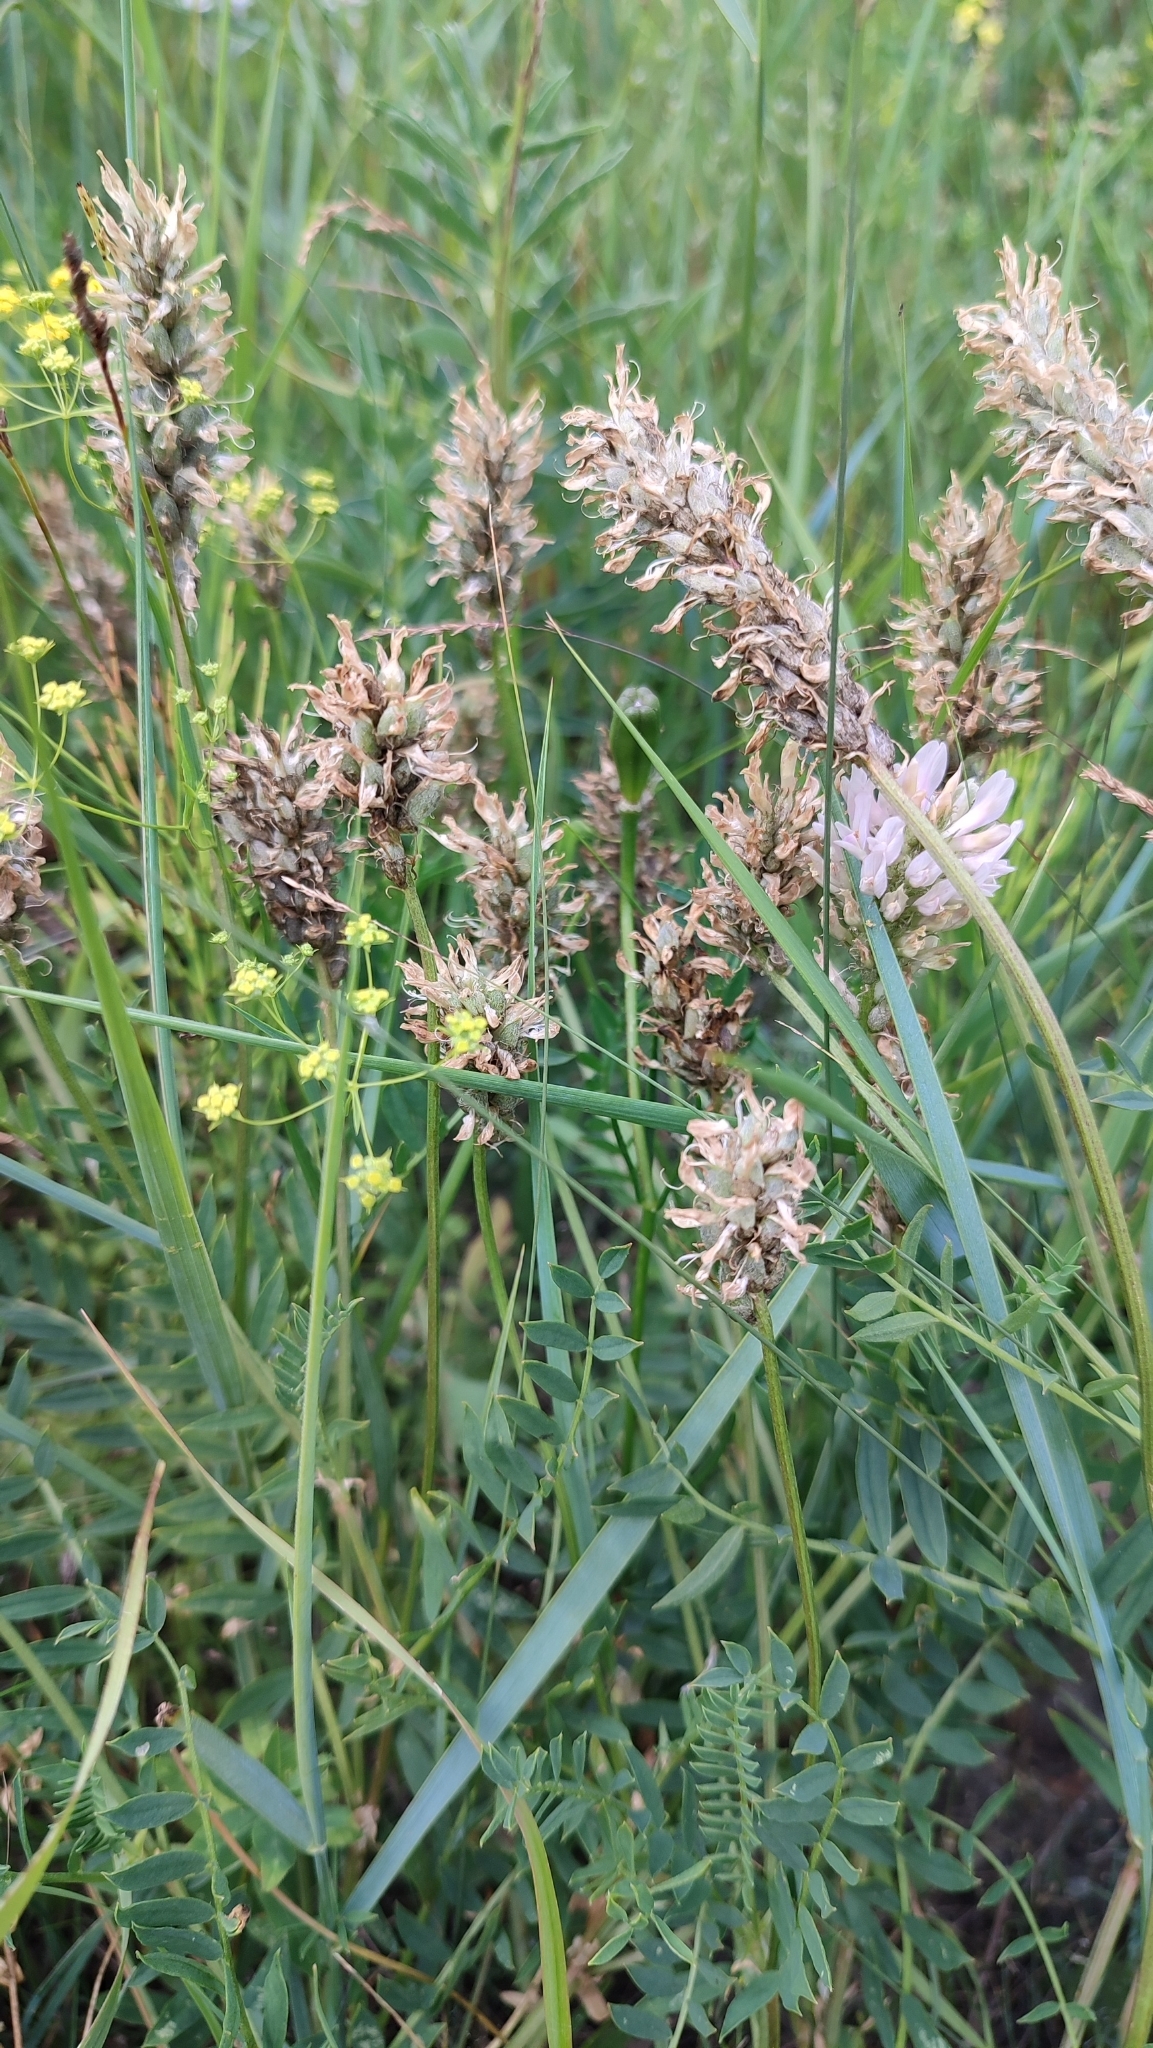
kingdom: Plantae
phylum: Tracheophyta
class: Magnoliopsida
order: Fabales
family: Fabaceae
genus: Astragalus
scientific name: Astragalus laxmannii
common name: Laxmann's milk-vetch
